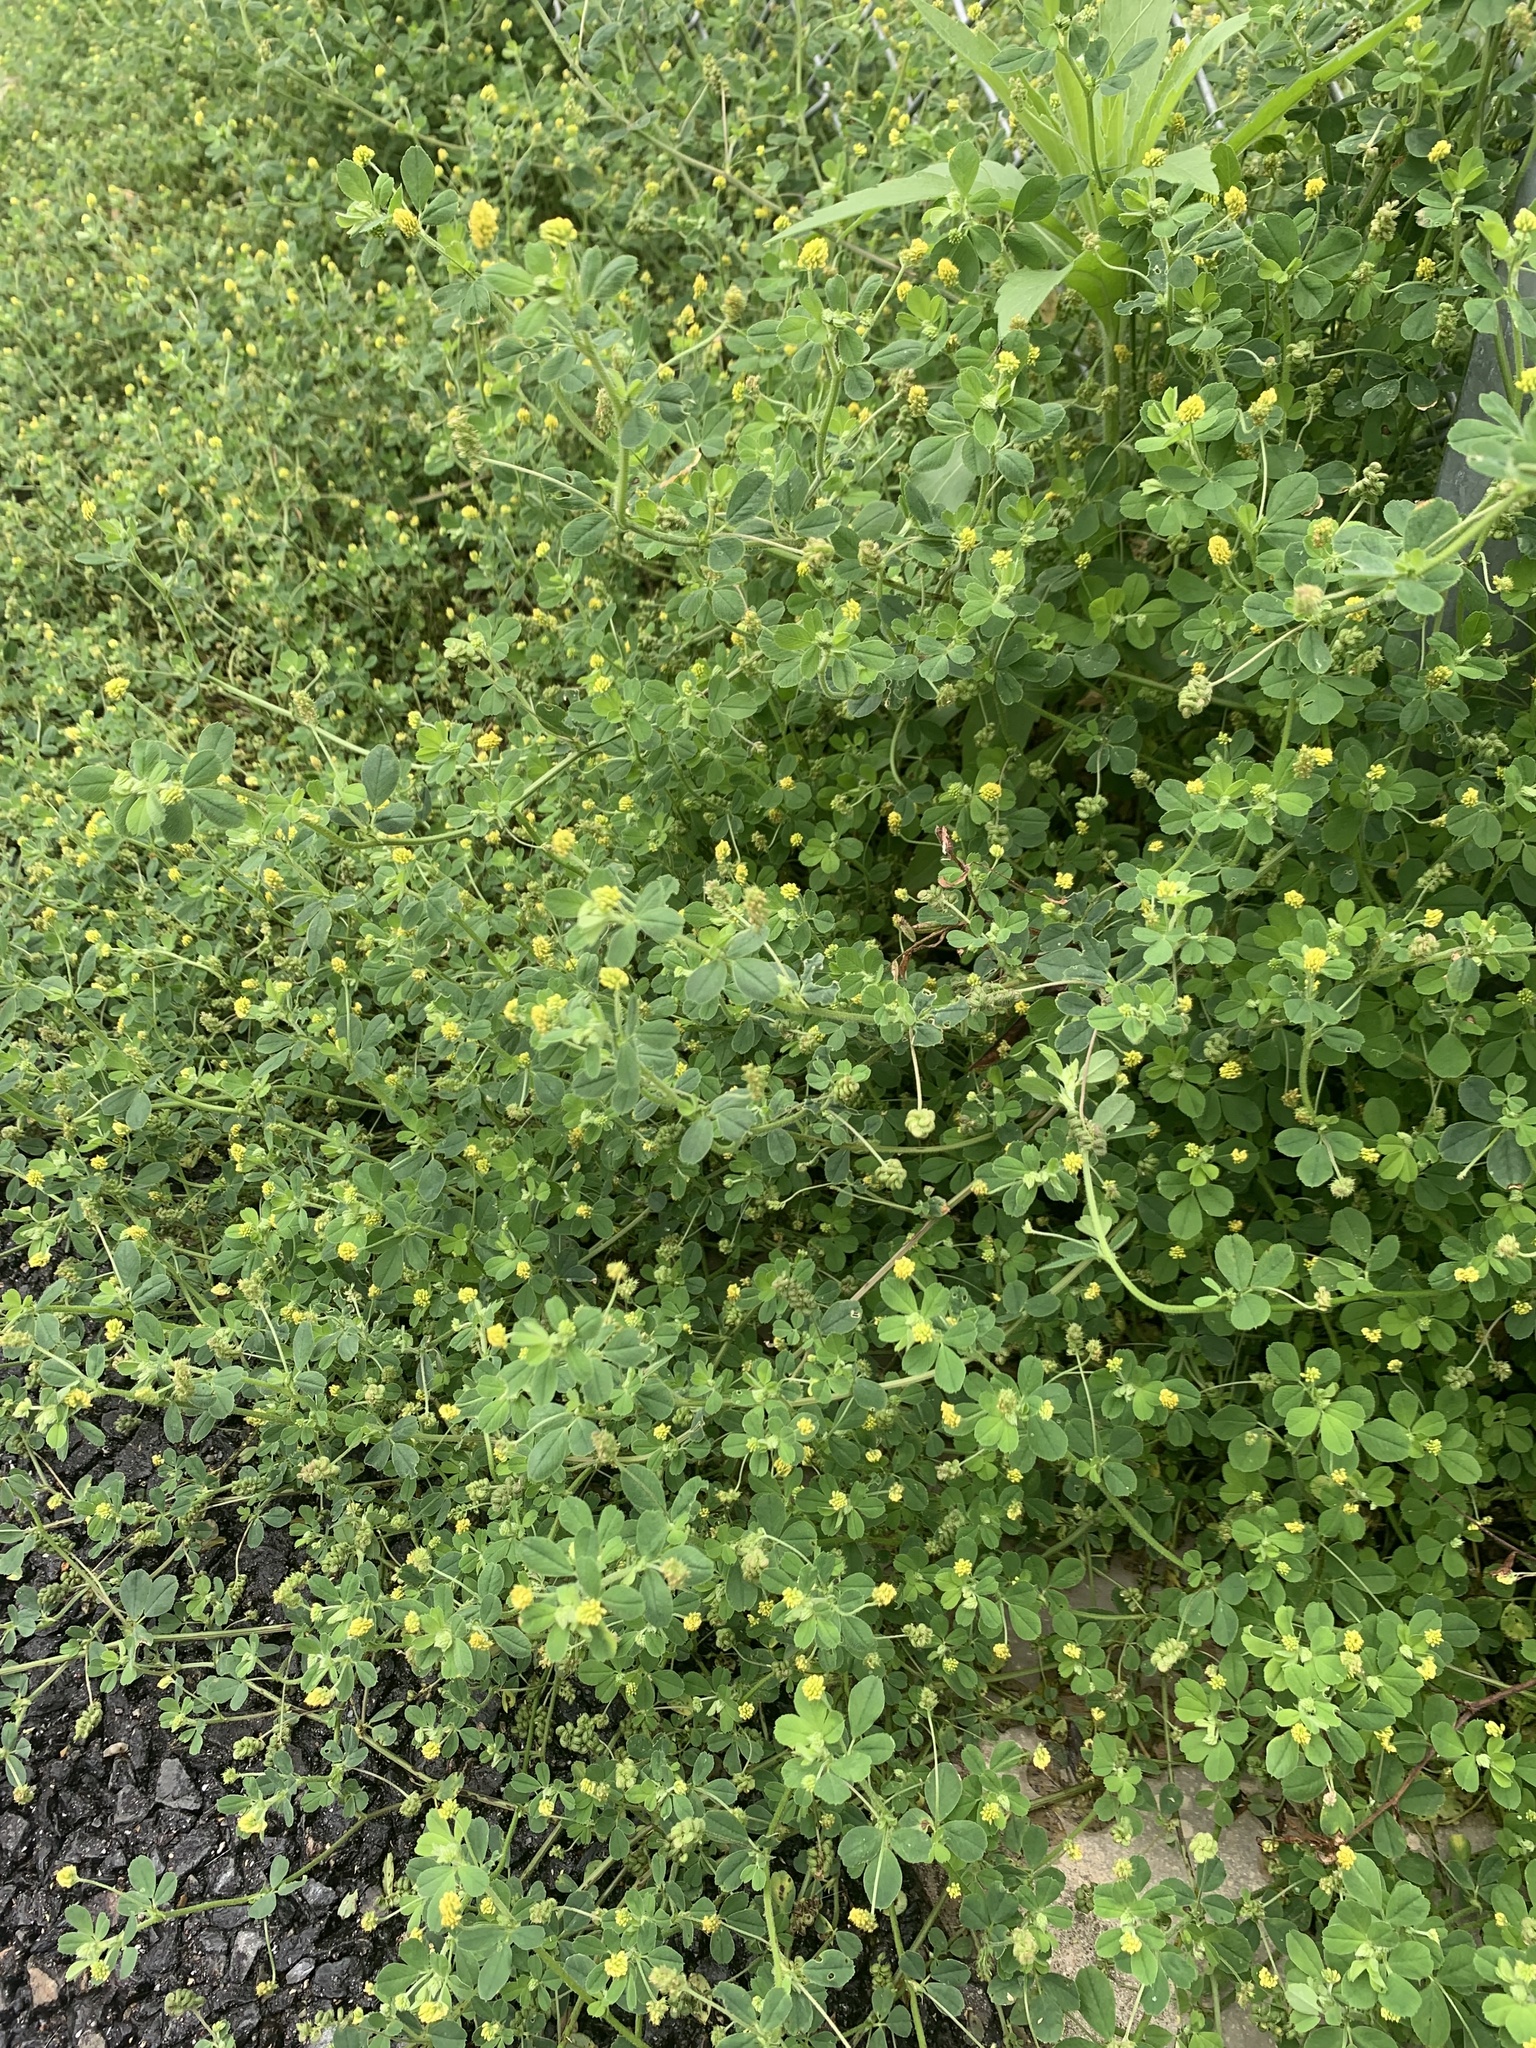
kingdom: Plantae
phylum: Tracheophyta
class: Magnoliopsida
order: Fabales
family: Fabaceae
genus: Medicago
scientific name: Medicago lupulina
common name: Black medick
